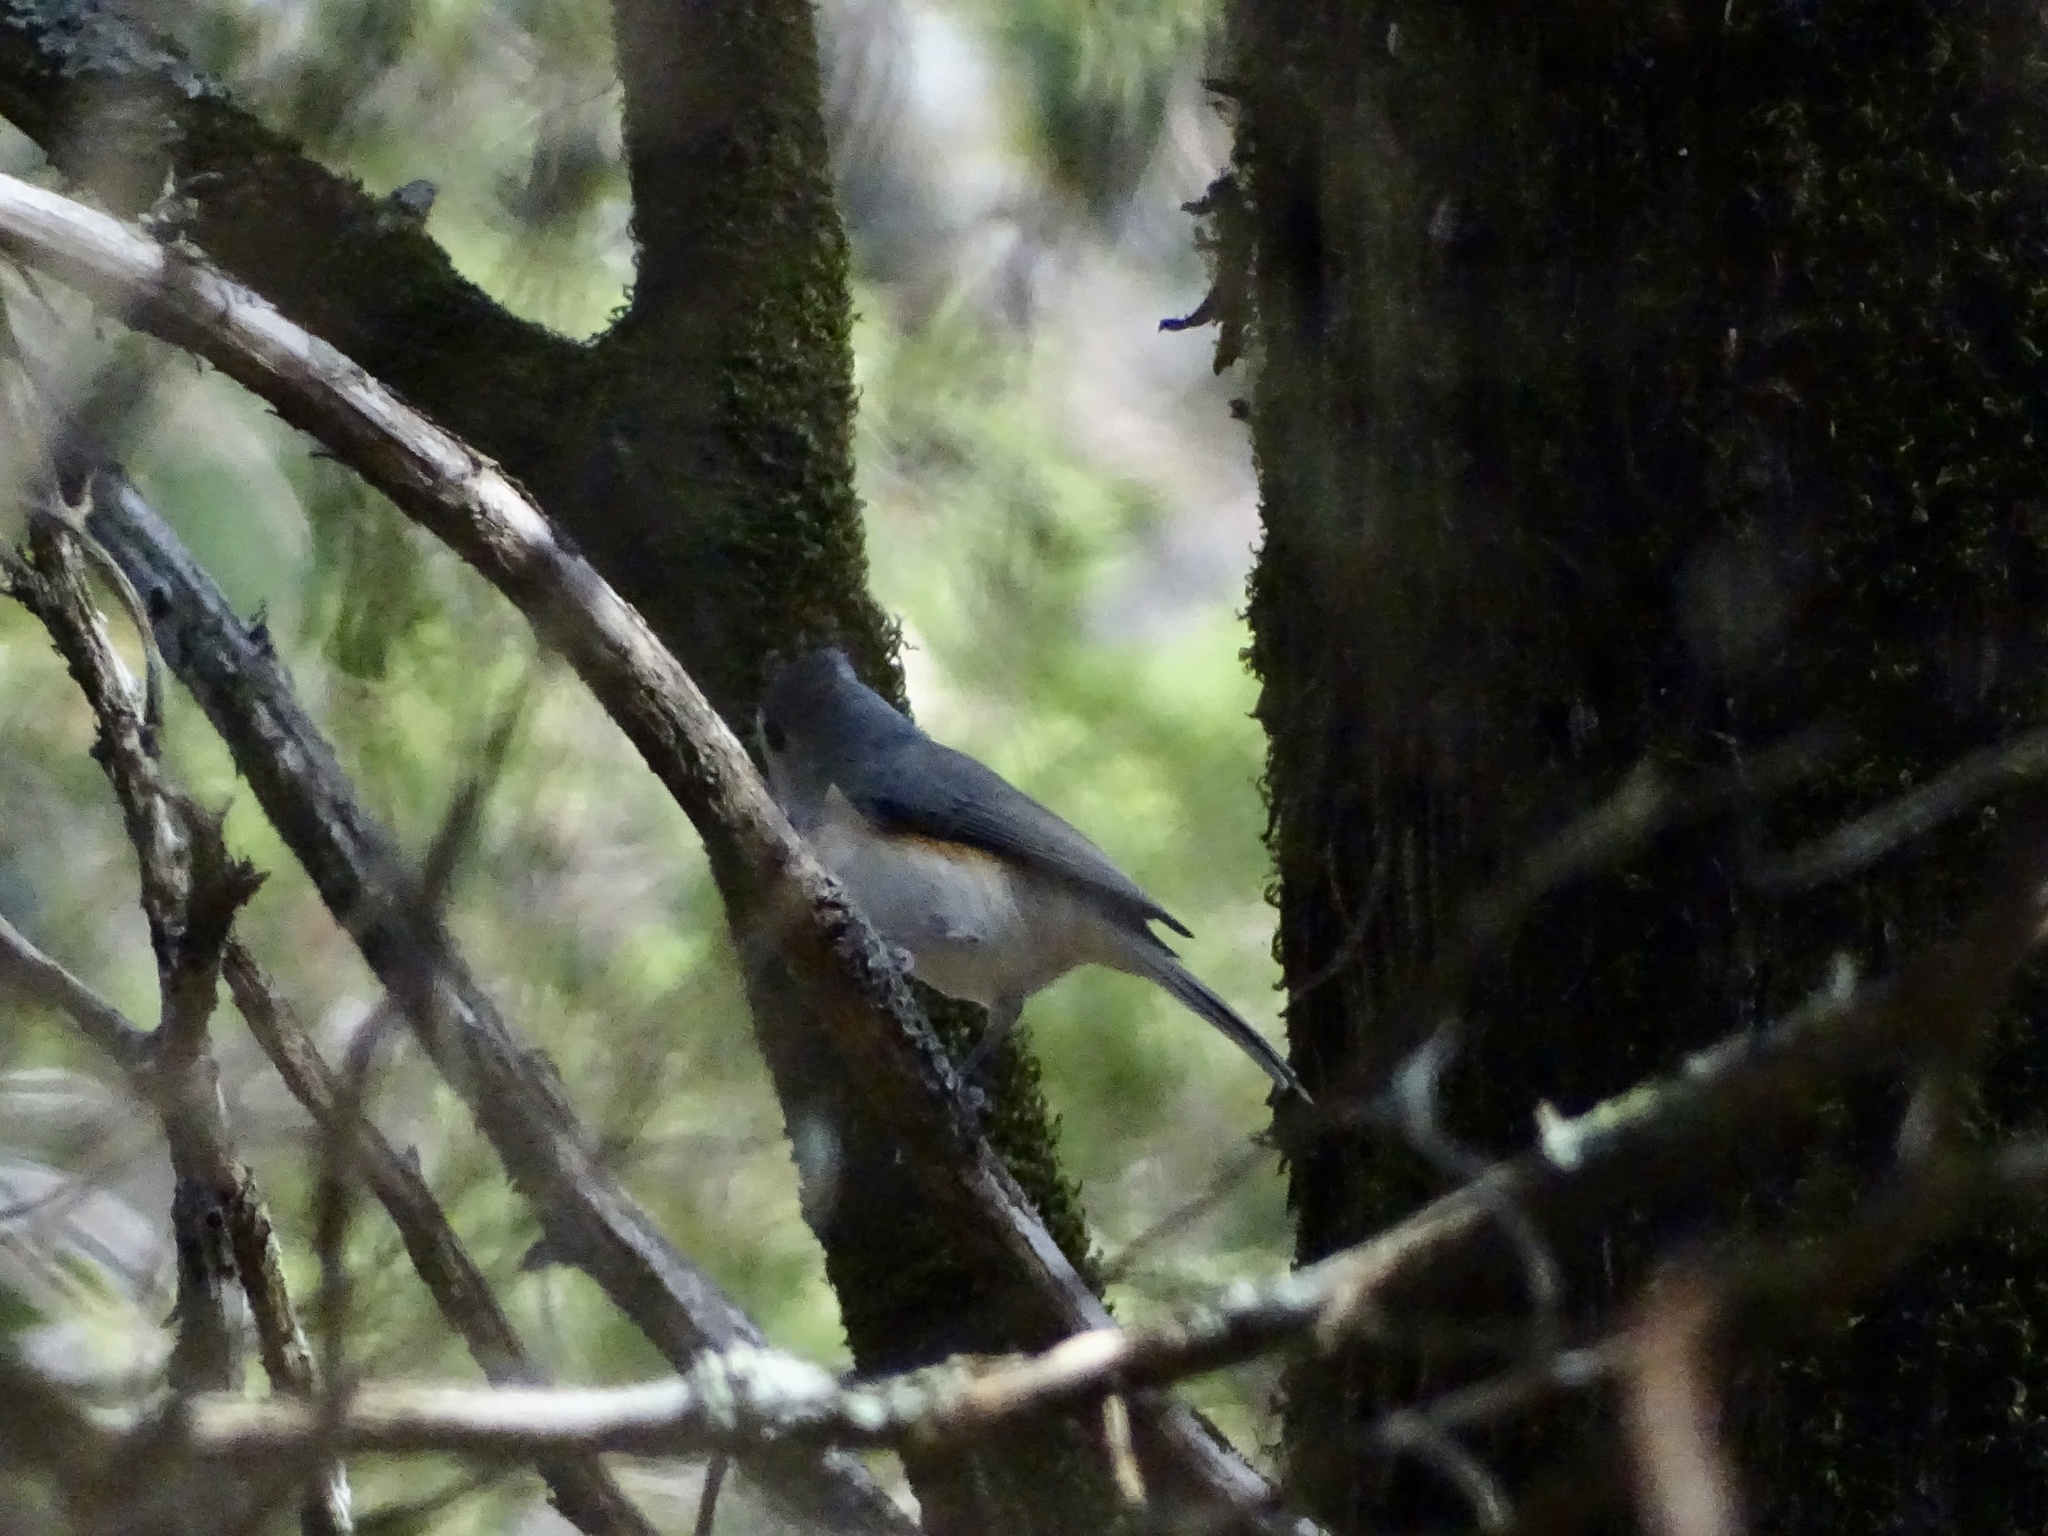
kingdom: Animalia
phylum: Chordata
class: Aves
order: Passeriformes
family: Paridae
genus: Baeolophus
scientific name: Baeolophus bicolor
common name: Tufted titmouse
